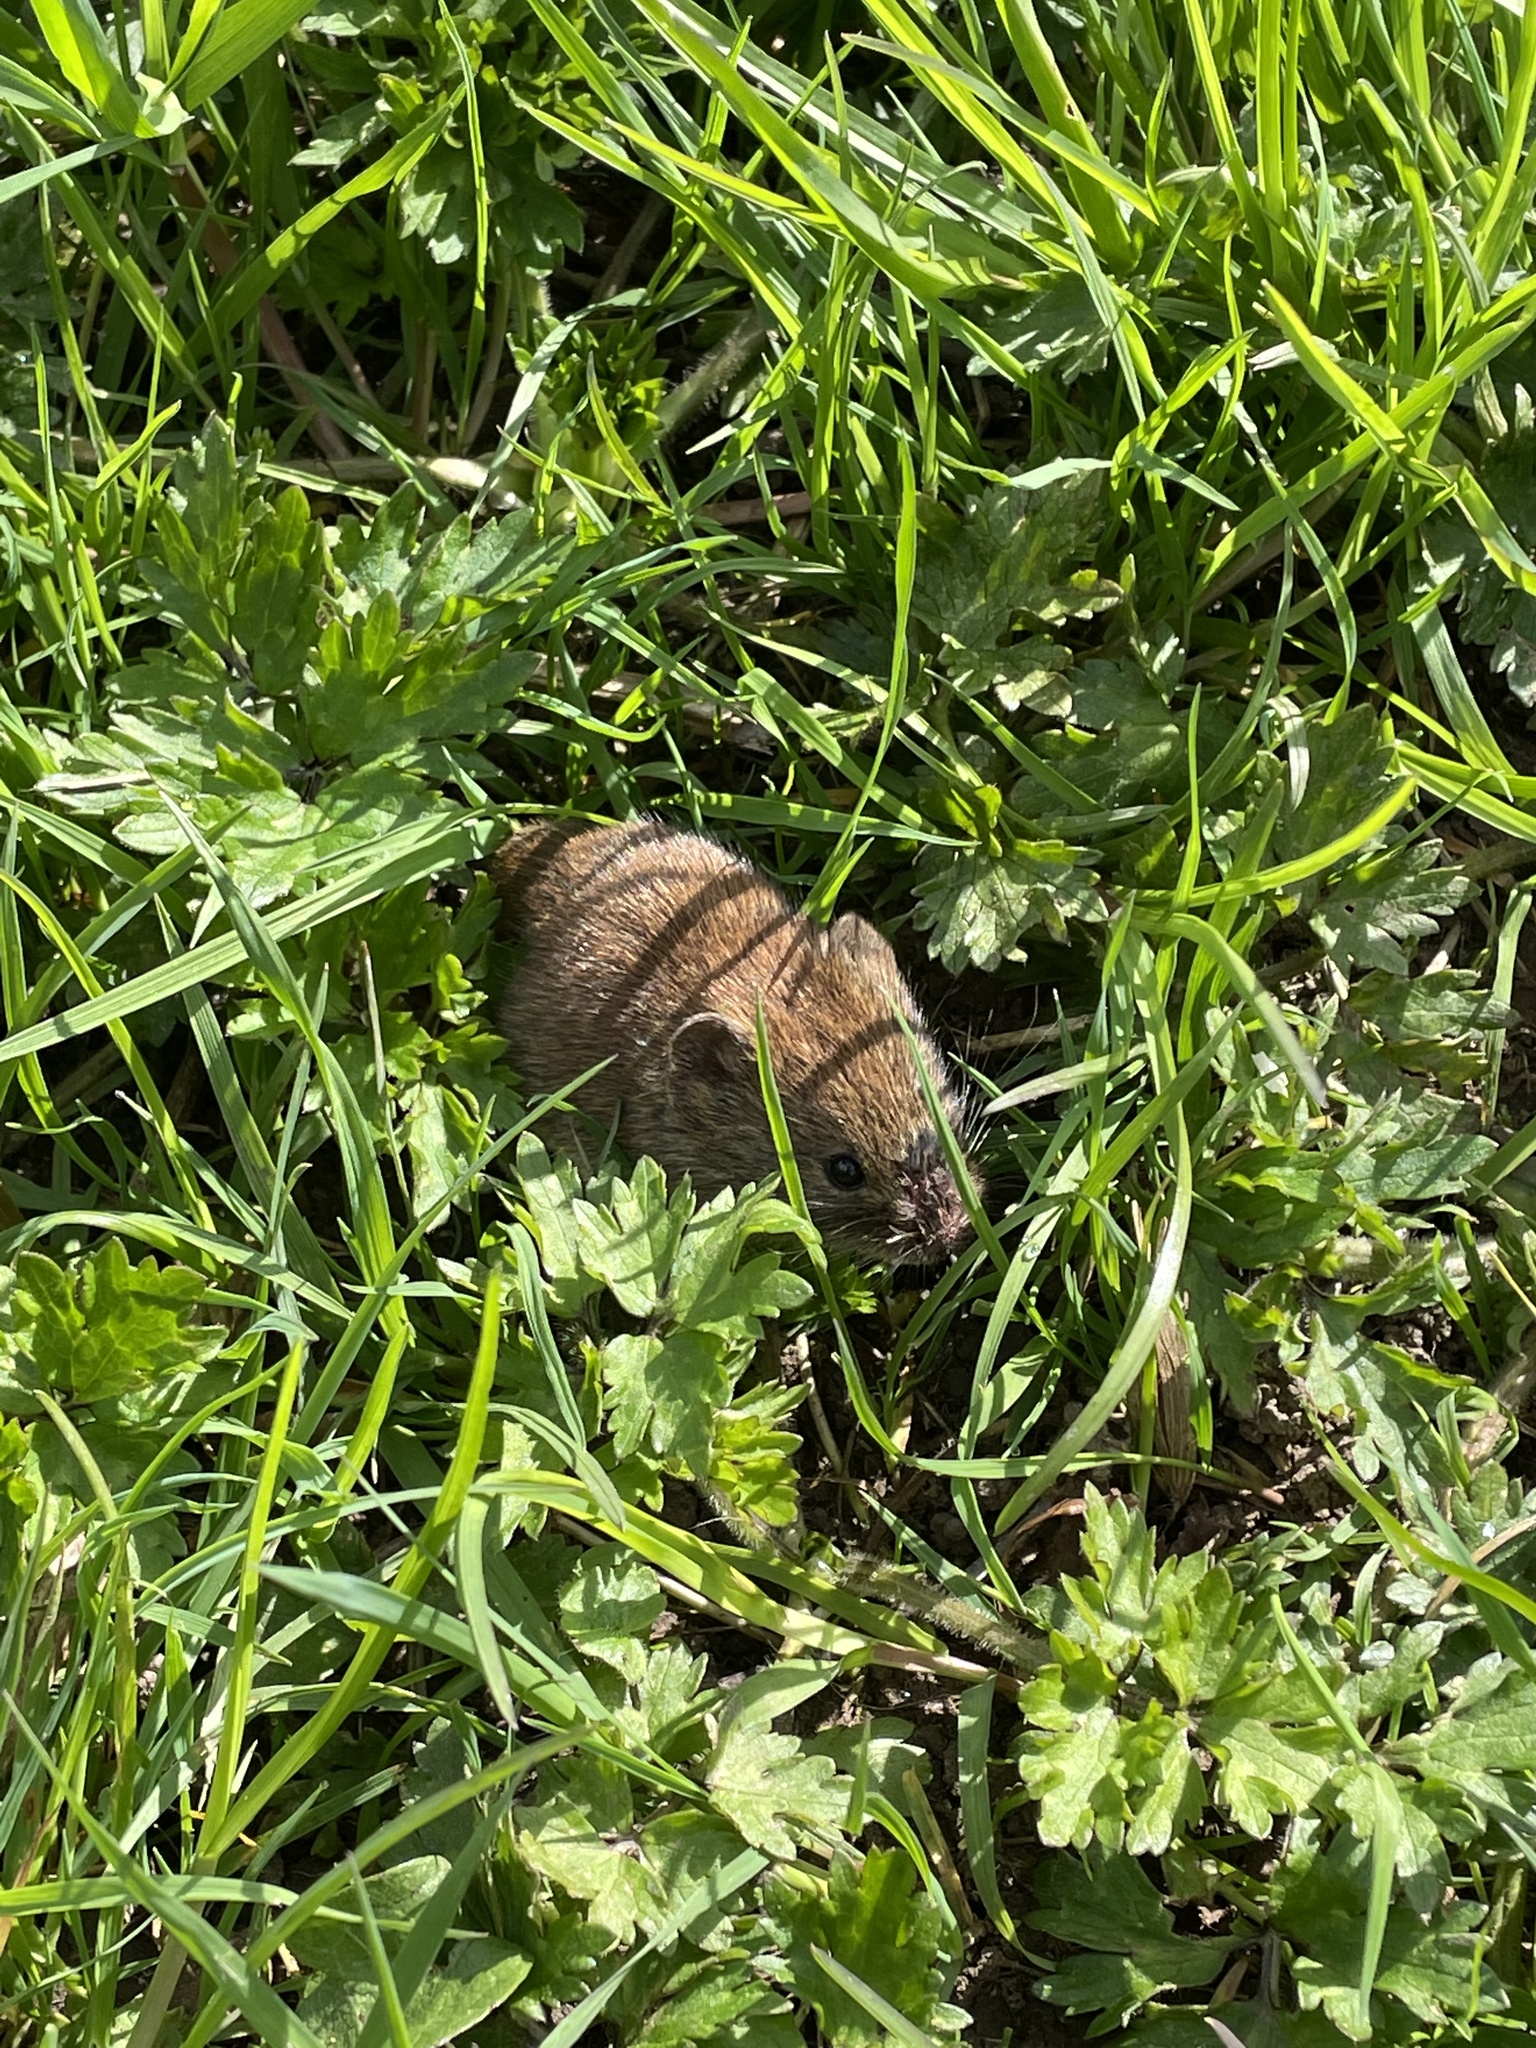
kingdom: Animalia
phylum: Chordata
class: Mammalia
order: Rodentia
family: Cricetidae
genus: Myodes
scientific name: Myodes glareolus
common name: Bank vole
